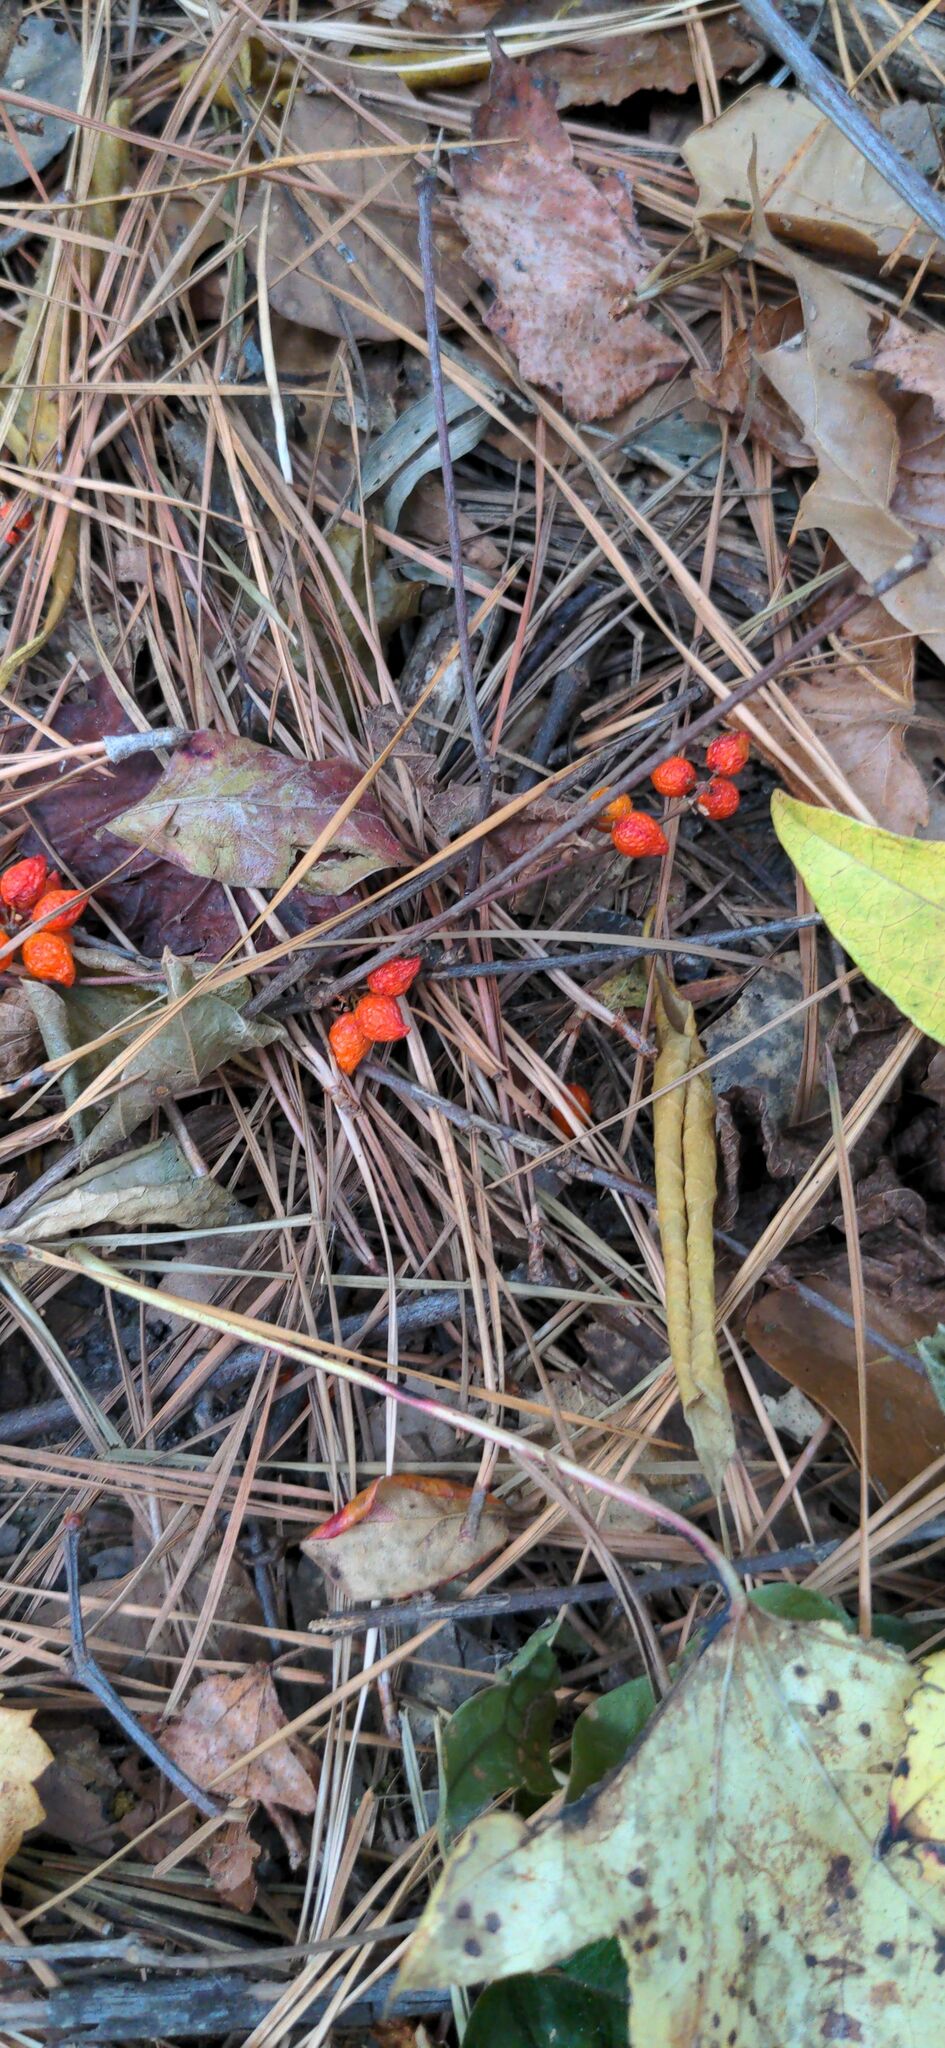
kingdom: Plantae
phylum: Tracheophyta
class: Liliopsida
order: Liliales
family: Smilacaceae
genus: Smilax
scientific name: Smilax pumila
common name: Sarsaparilla-vine
